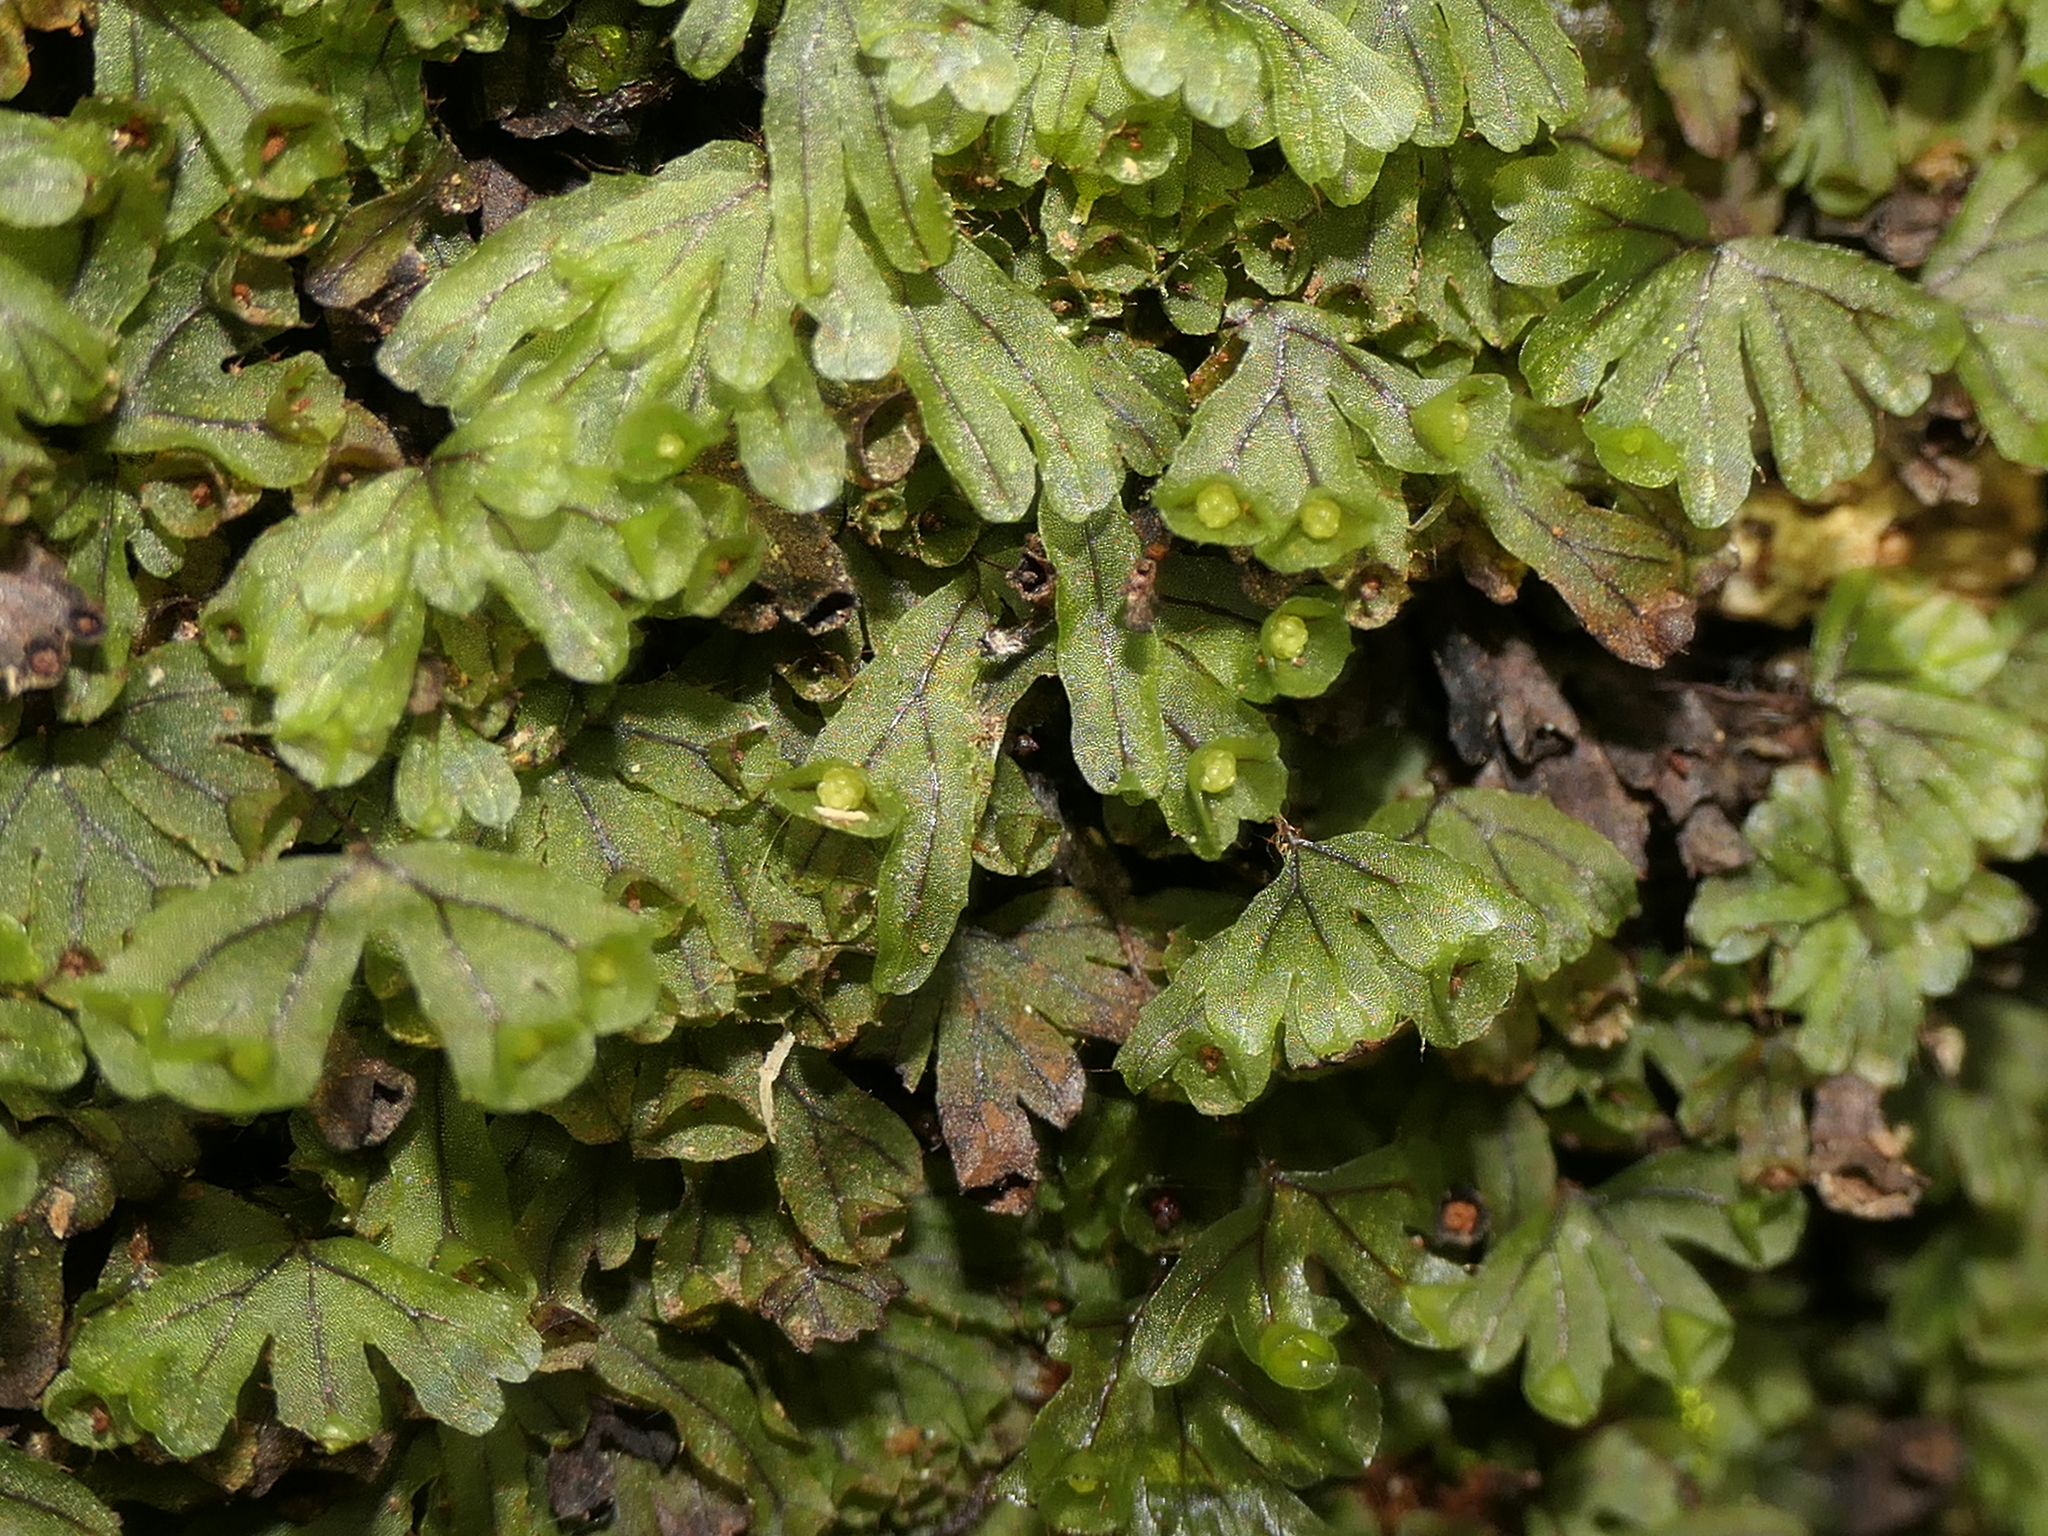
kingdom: Plantae
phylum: Tracheophyta
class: Polypodiopsida
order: Hymenophyllales
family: Hymenophyllaceae
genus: Hymenophyllum
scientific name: Hymenophyllum lyallii
